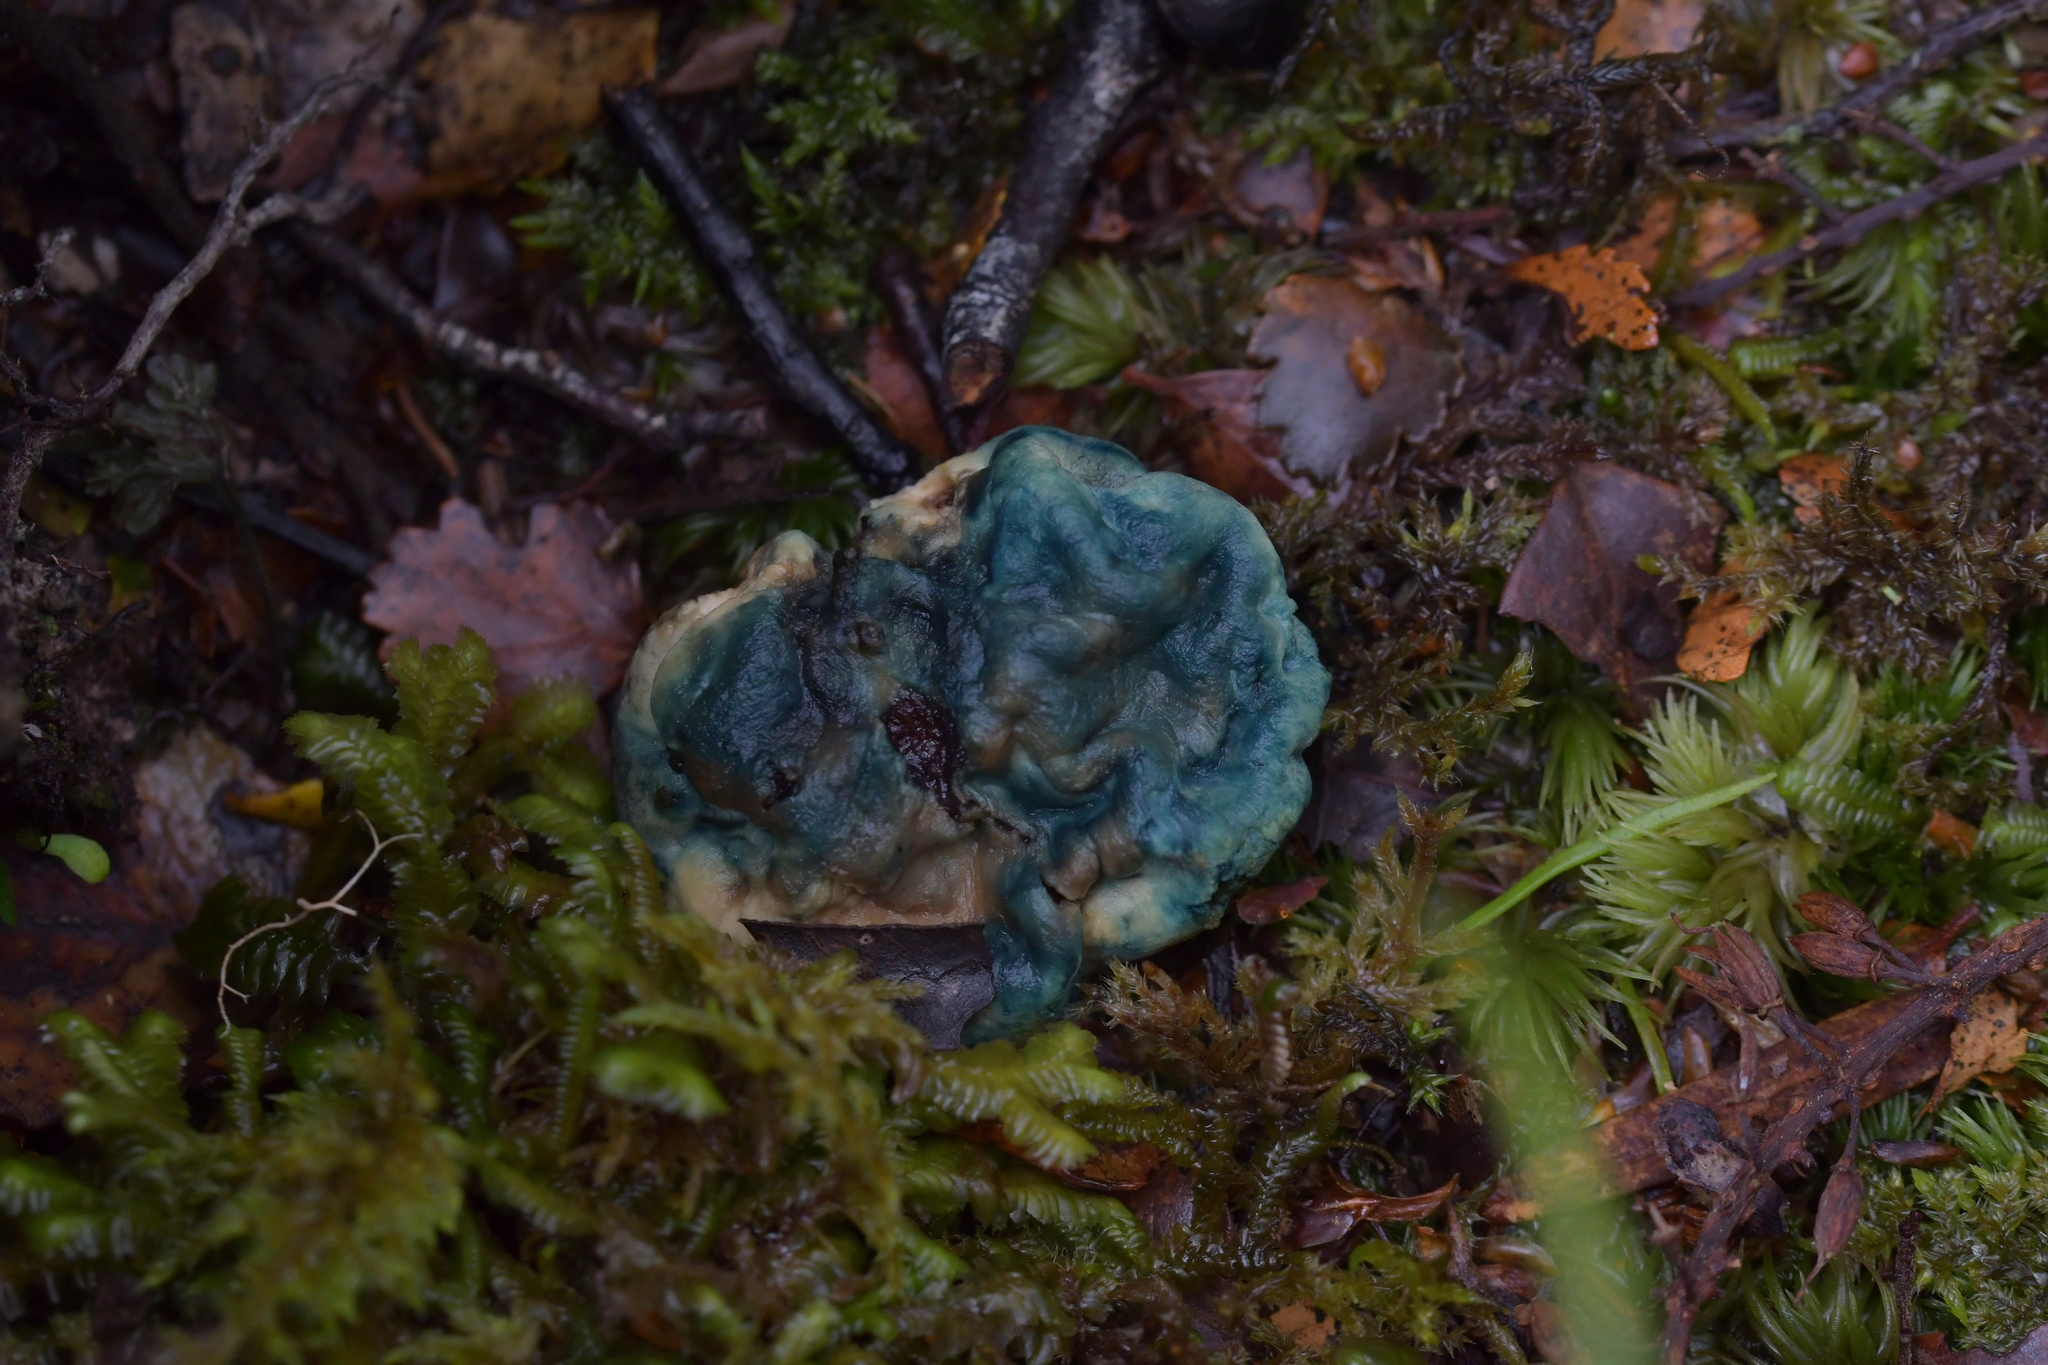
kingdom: Fungi
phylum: Basidiomycota
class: Agaricomycetes
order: Boletales
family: Boletaceae
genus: Leccinum
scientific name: Leccinum pachyderme
